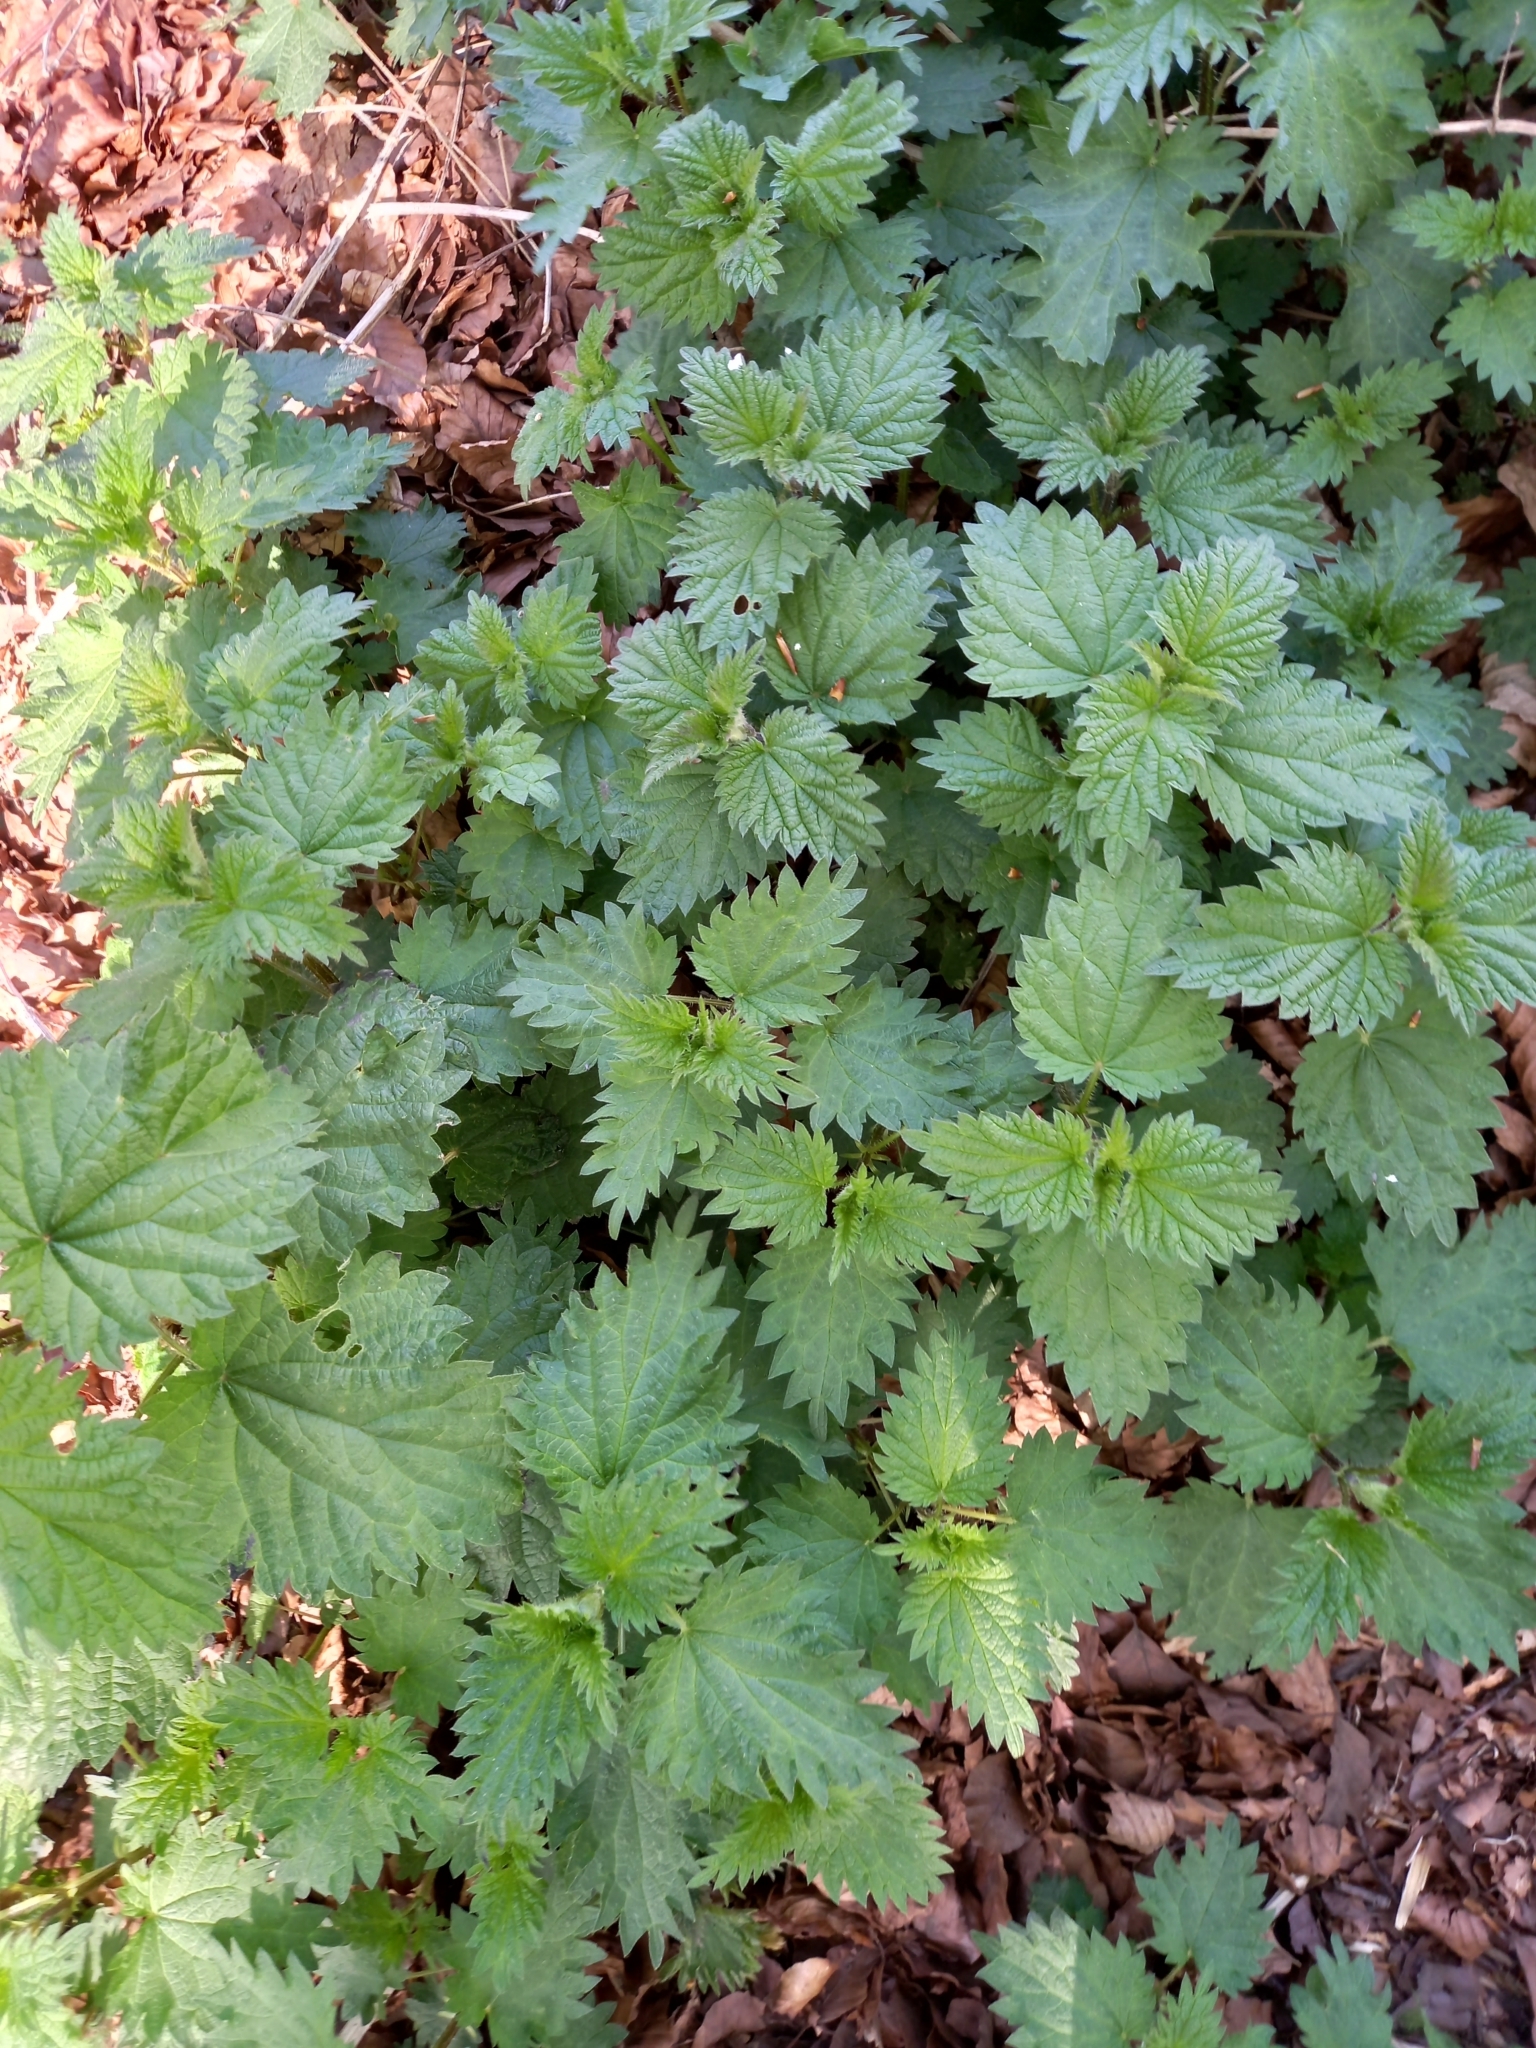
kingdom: Plantae
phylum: Tracheophyta
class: Magnoliopsida
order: Rosales
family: Urticaceae
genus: Urtica
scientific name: Urtica dioica
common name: Common nettle
